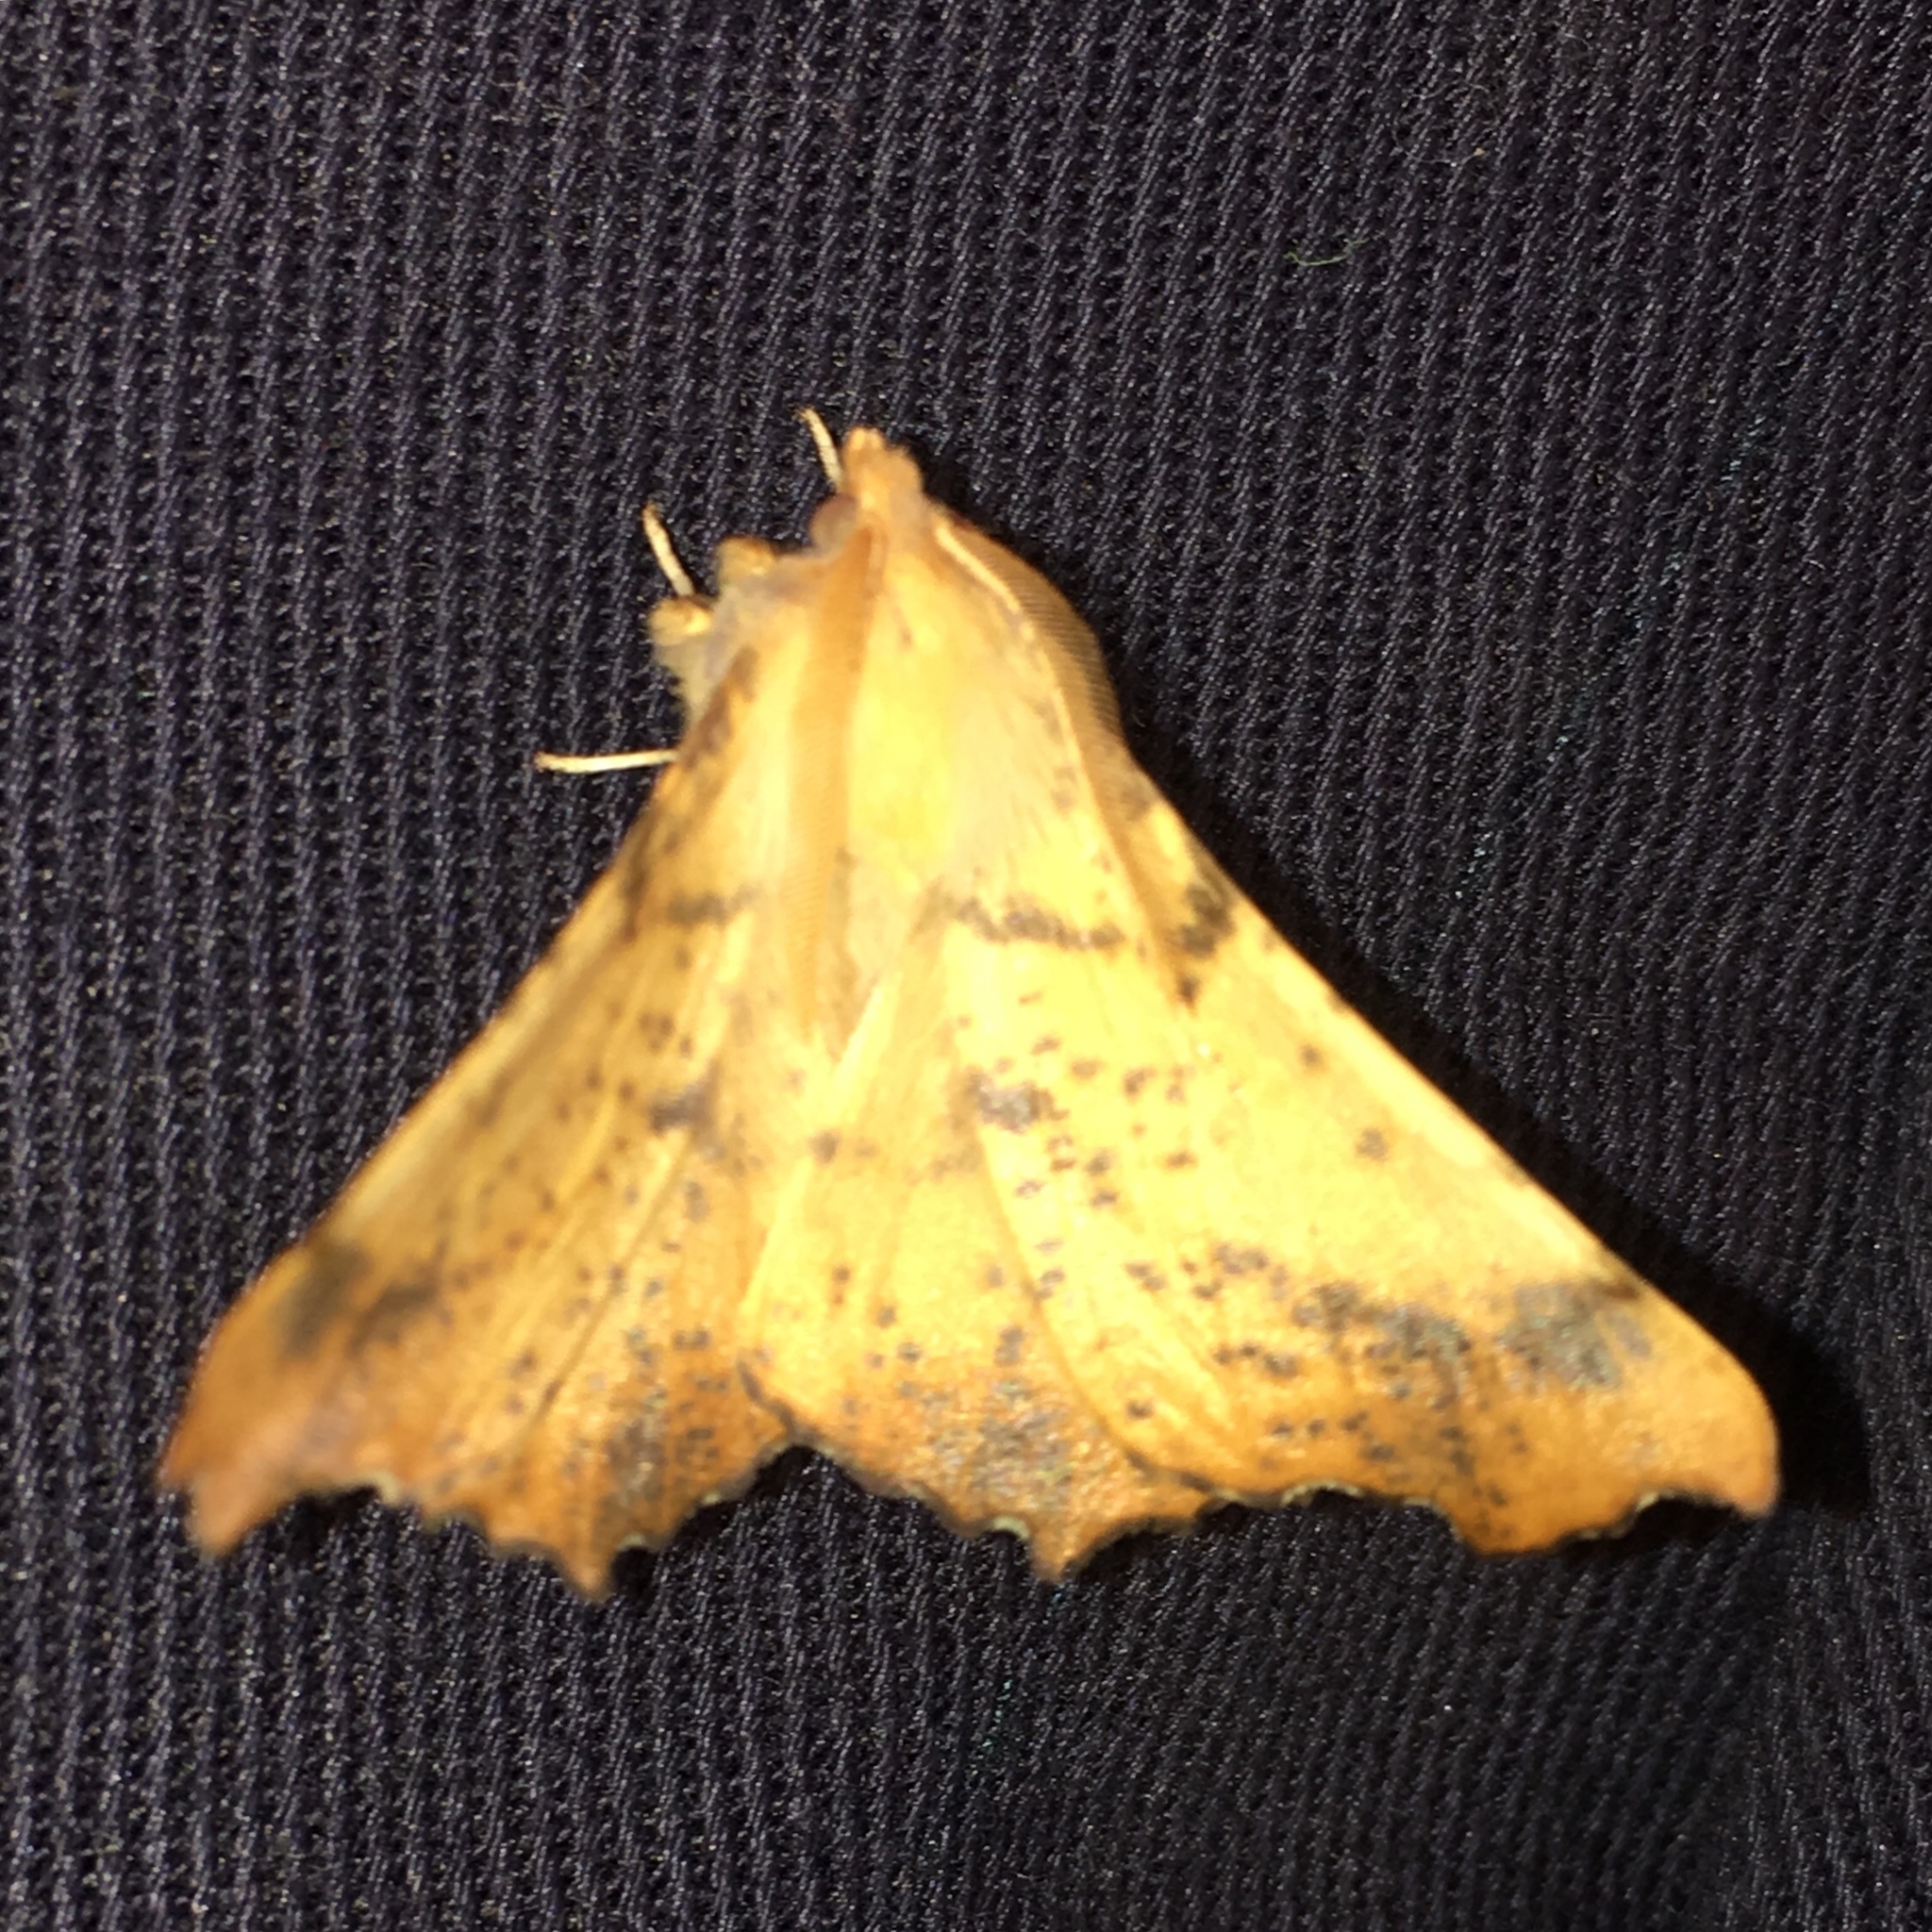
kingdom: Animalia
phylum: Arthropoda
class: Insecta
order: Lepidoptera
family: Geometridae
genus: Ennomos
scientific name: Ennomos magnaria
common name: Maple spanworm
